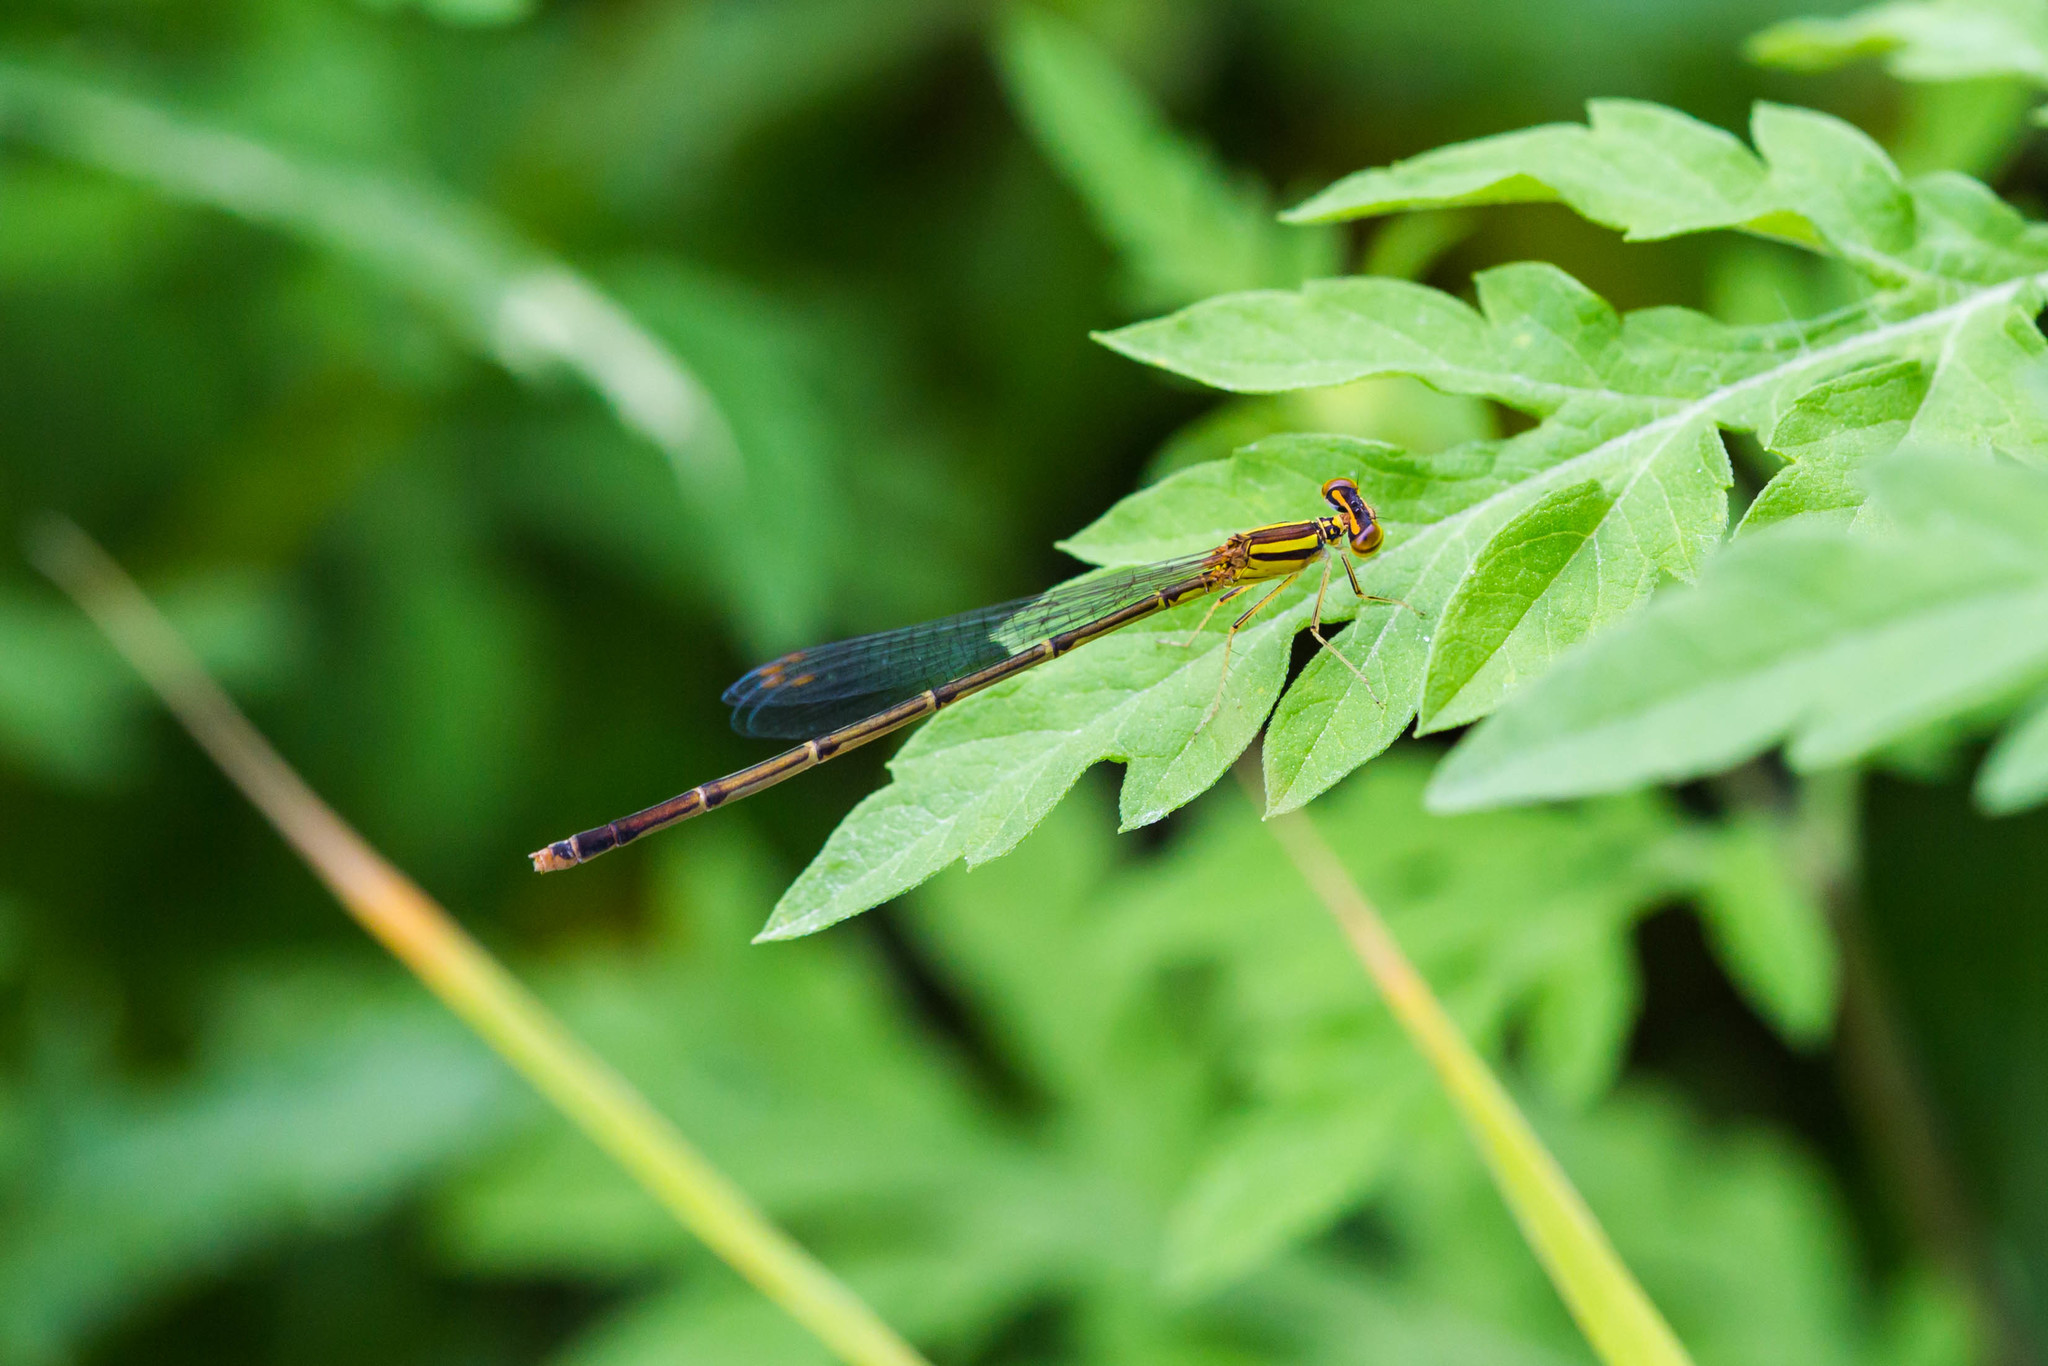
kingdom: Animalia
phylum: Arthropoda
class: Insecta
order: Odonata
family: Coenagrionidae
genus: Enallagma
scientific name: Enallagma signatum
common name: Orange bluet
